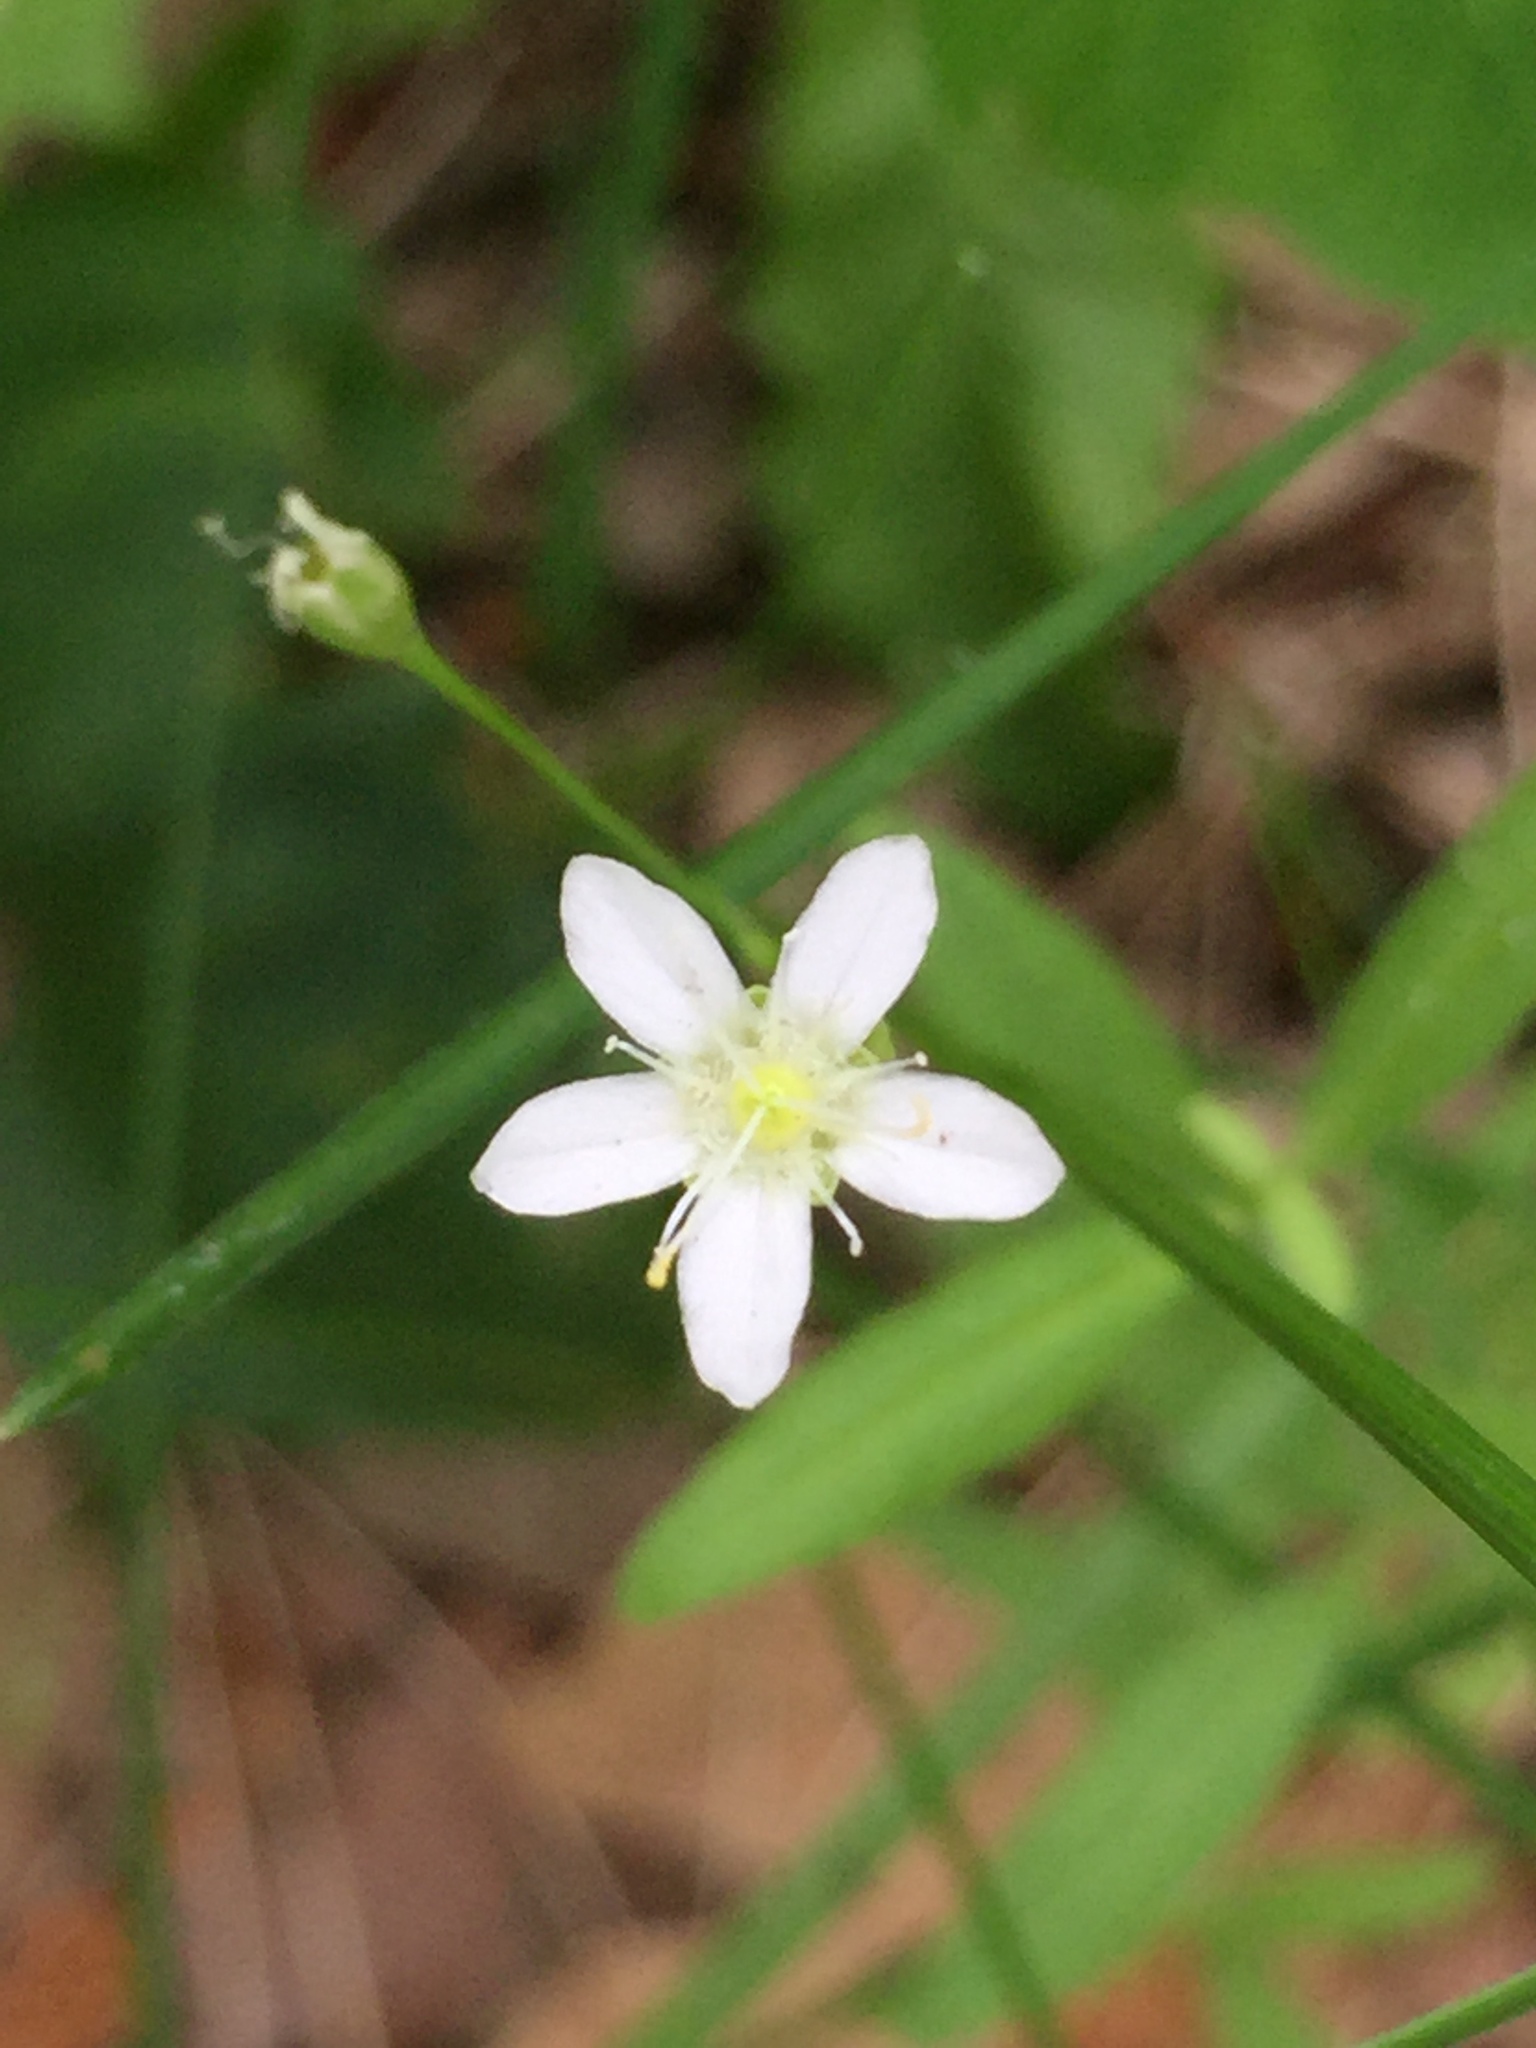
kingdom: Plantae
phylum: Tracheophyta
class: Magnoliopsida
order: Caryophyllales
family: Caryophyllaceae
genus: Moehringia
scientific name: Moehringia lateriflora
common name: Blunt-leaved sandwort
